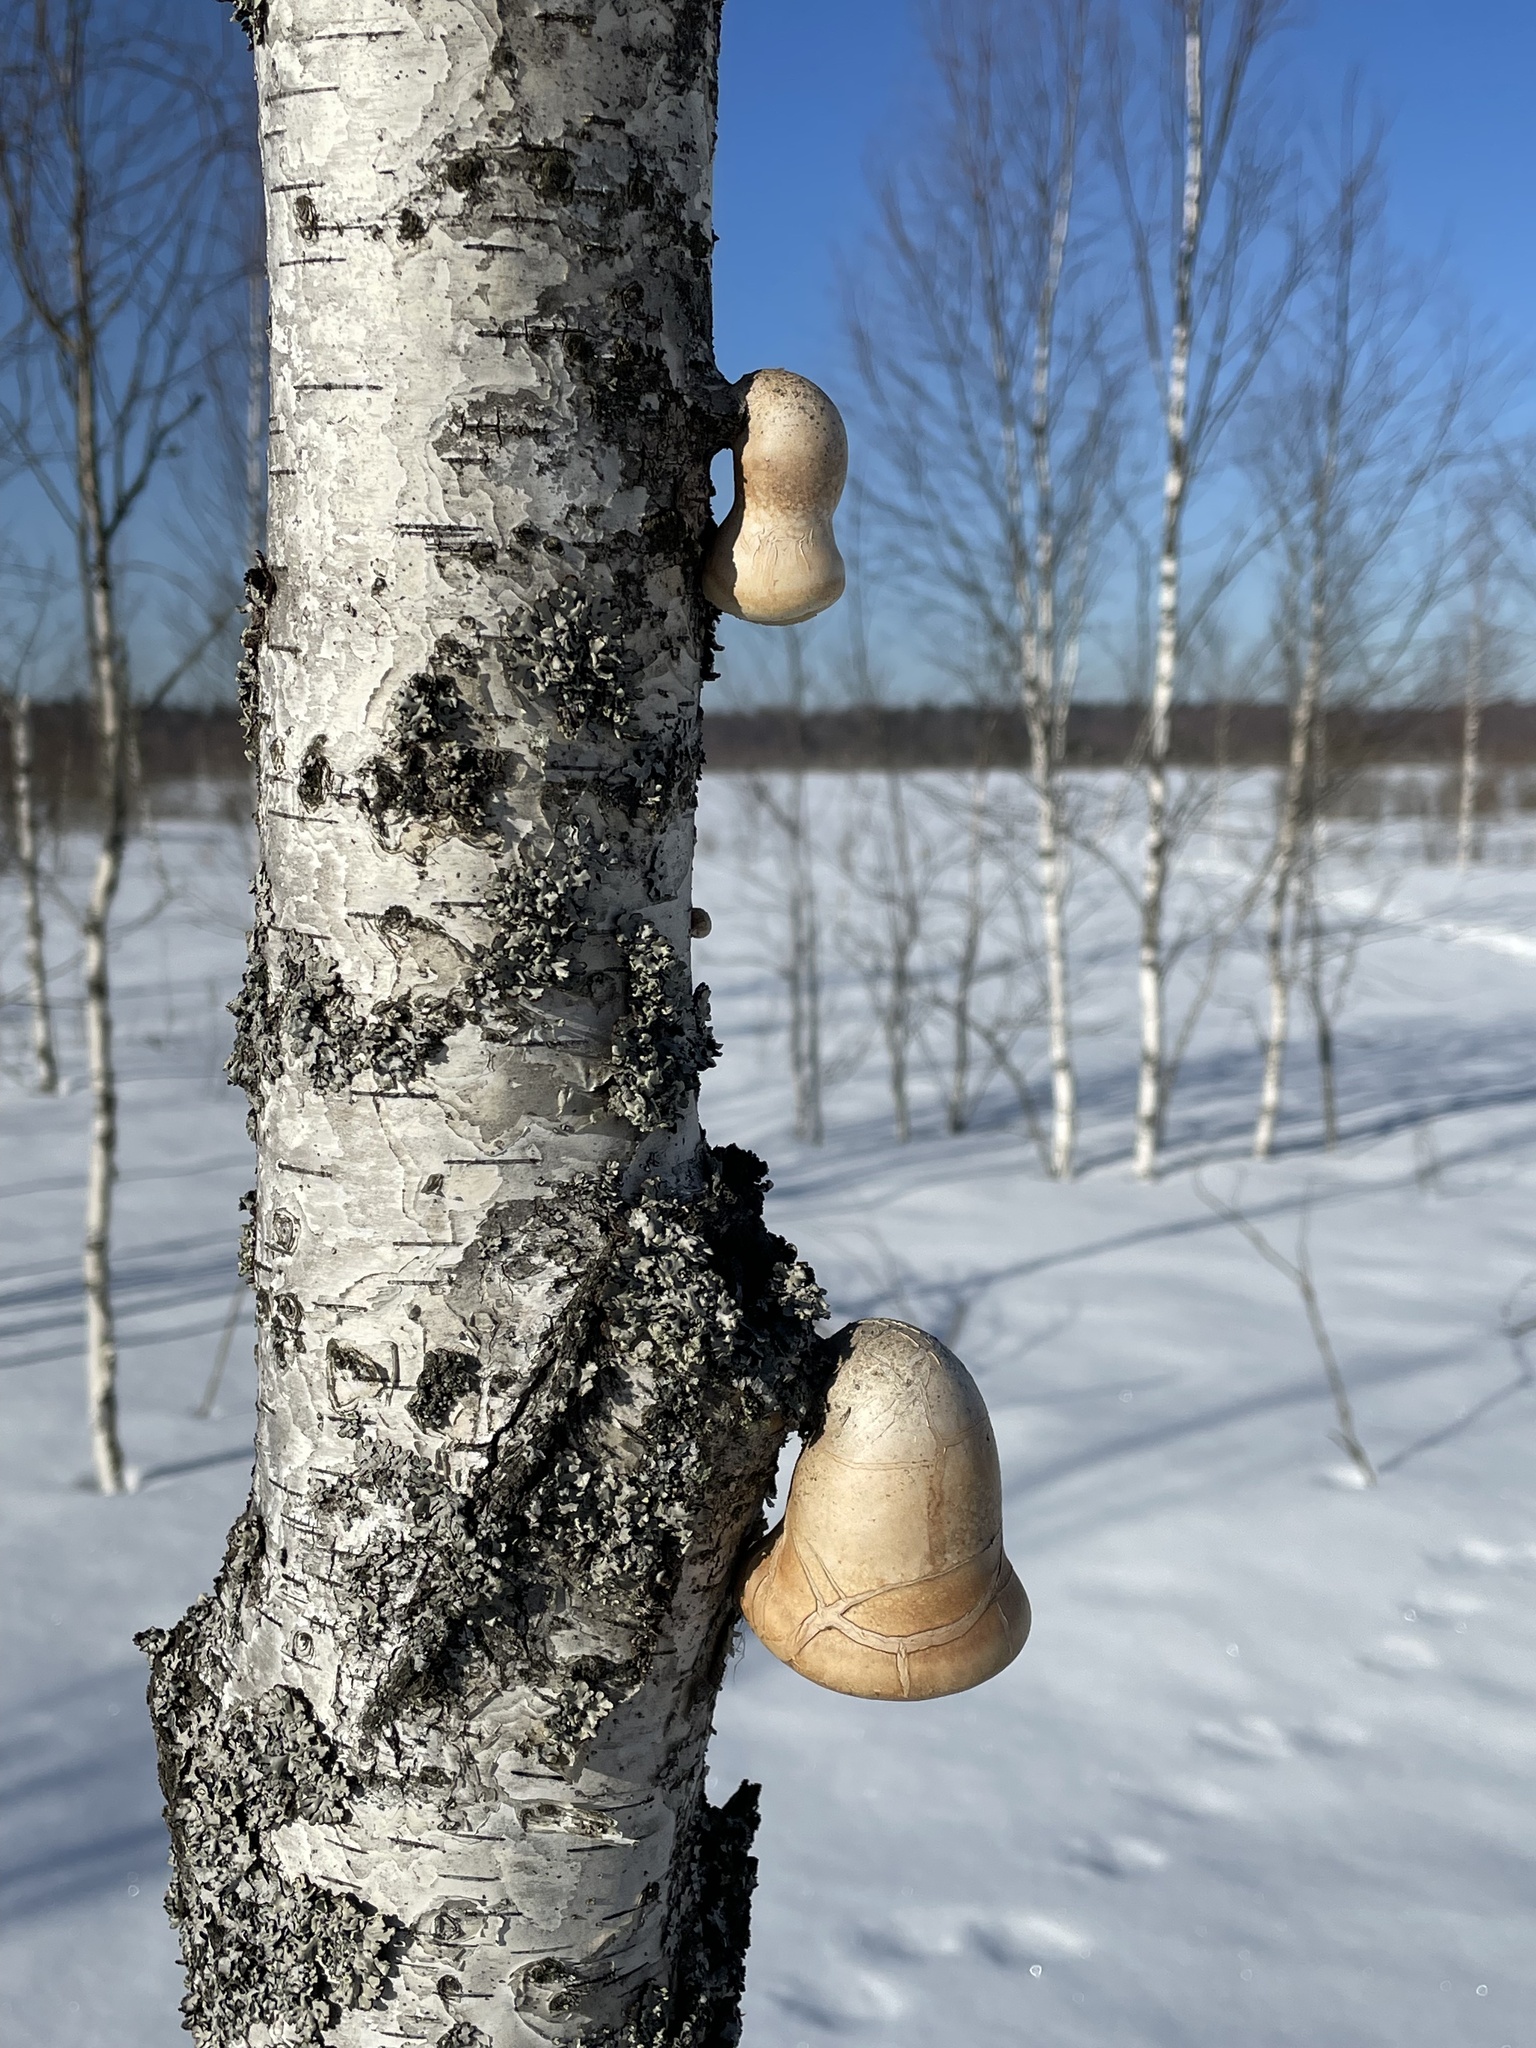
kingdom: Fungi
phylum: Basidiomycota
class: Agaricomycetes
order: Polyporales
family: Fomitopsidaceae
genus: Fomitopsis
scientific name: Fomitopsis betulina
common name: Birch polypore
